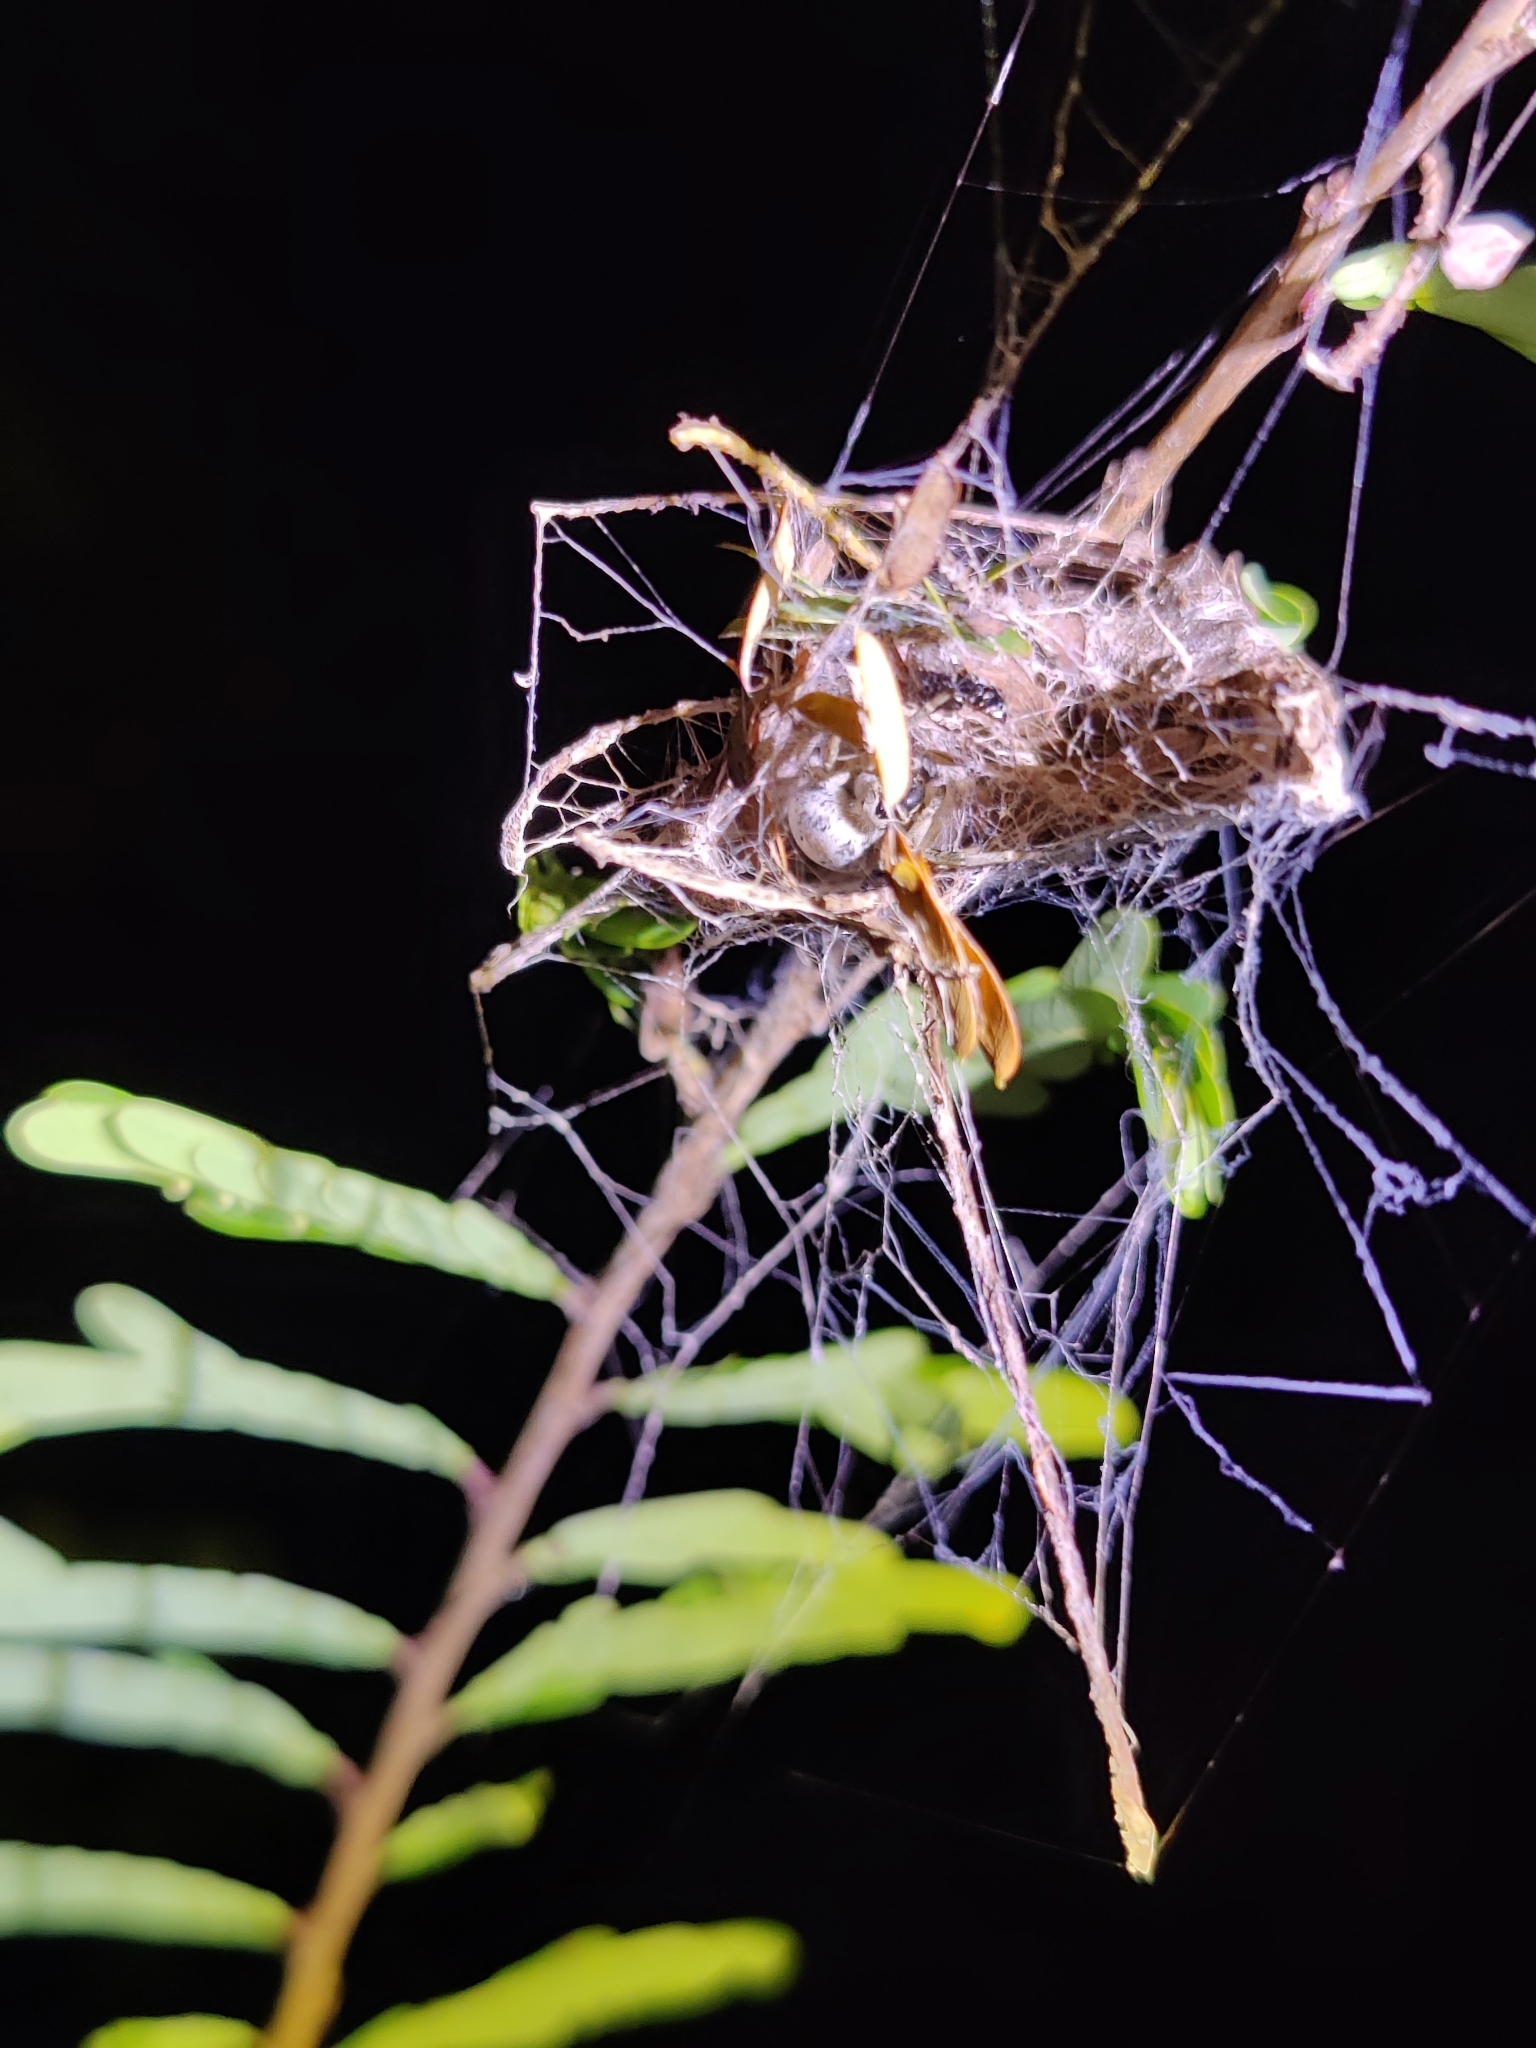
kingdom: Animalia
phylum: Arthropoda
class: Arachnida
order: Araneae
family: Eresidae
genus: Stegodyphus
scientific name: Stegodyphus sarasinorum
